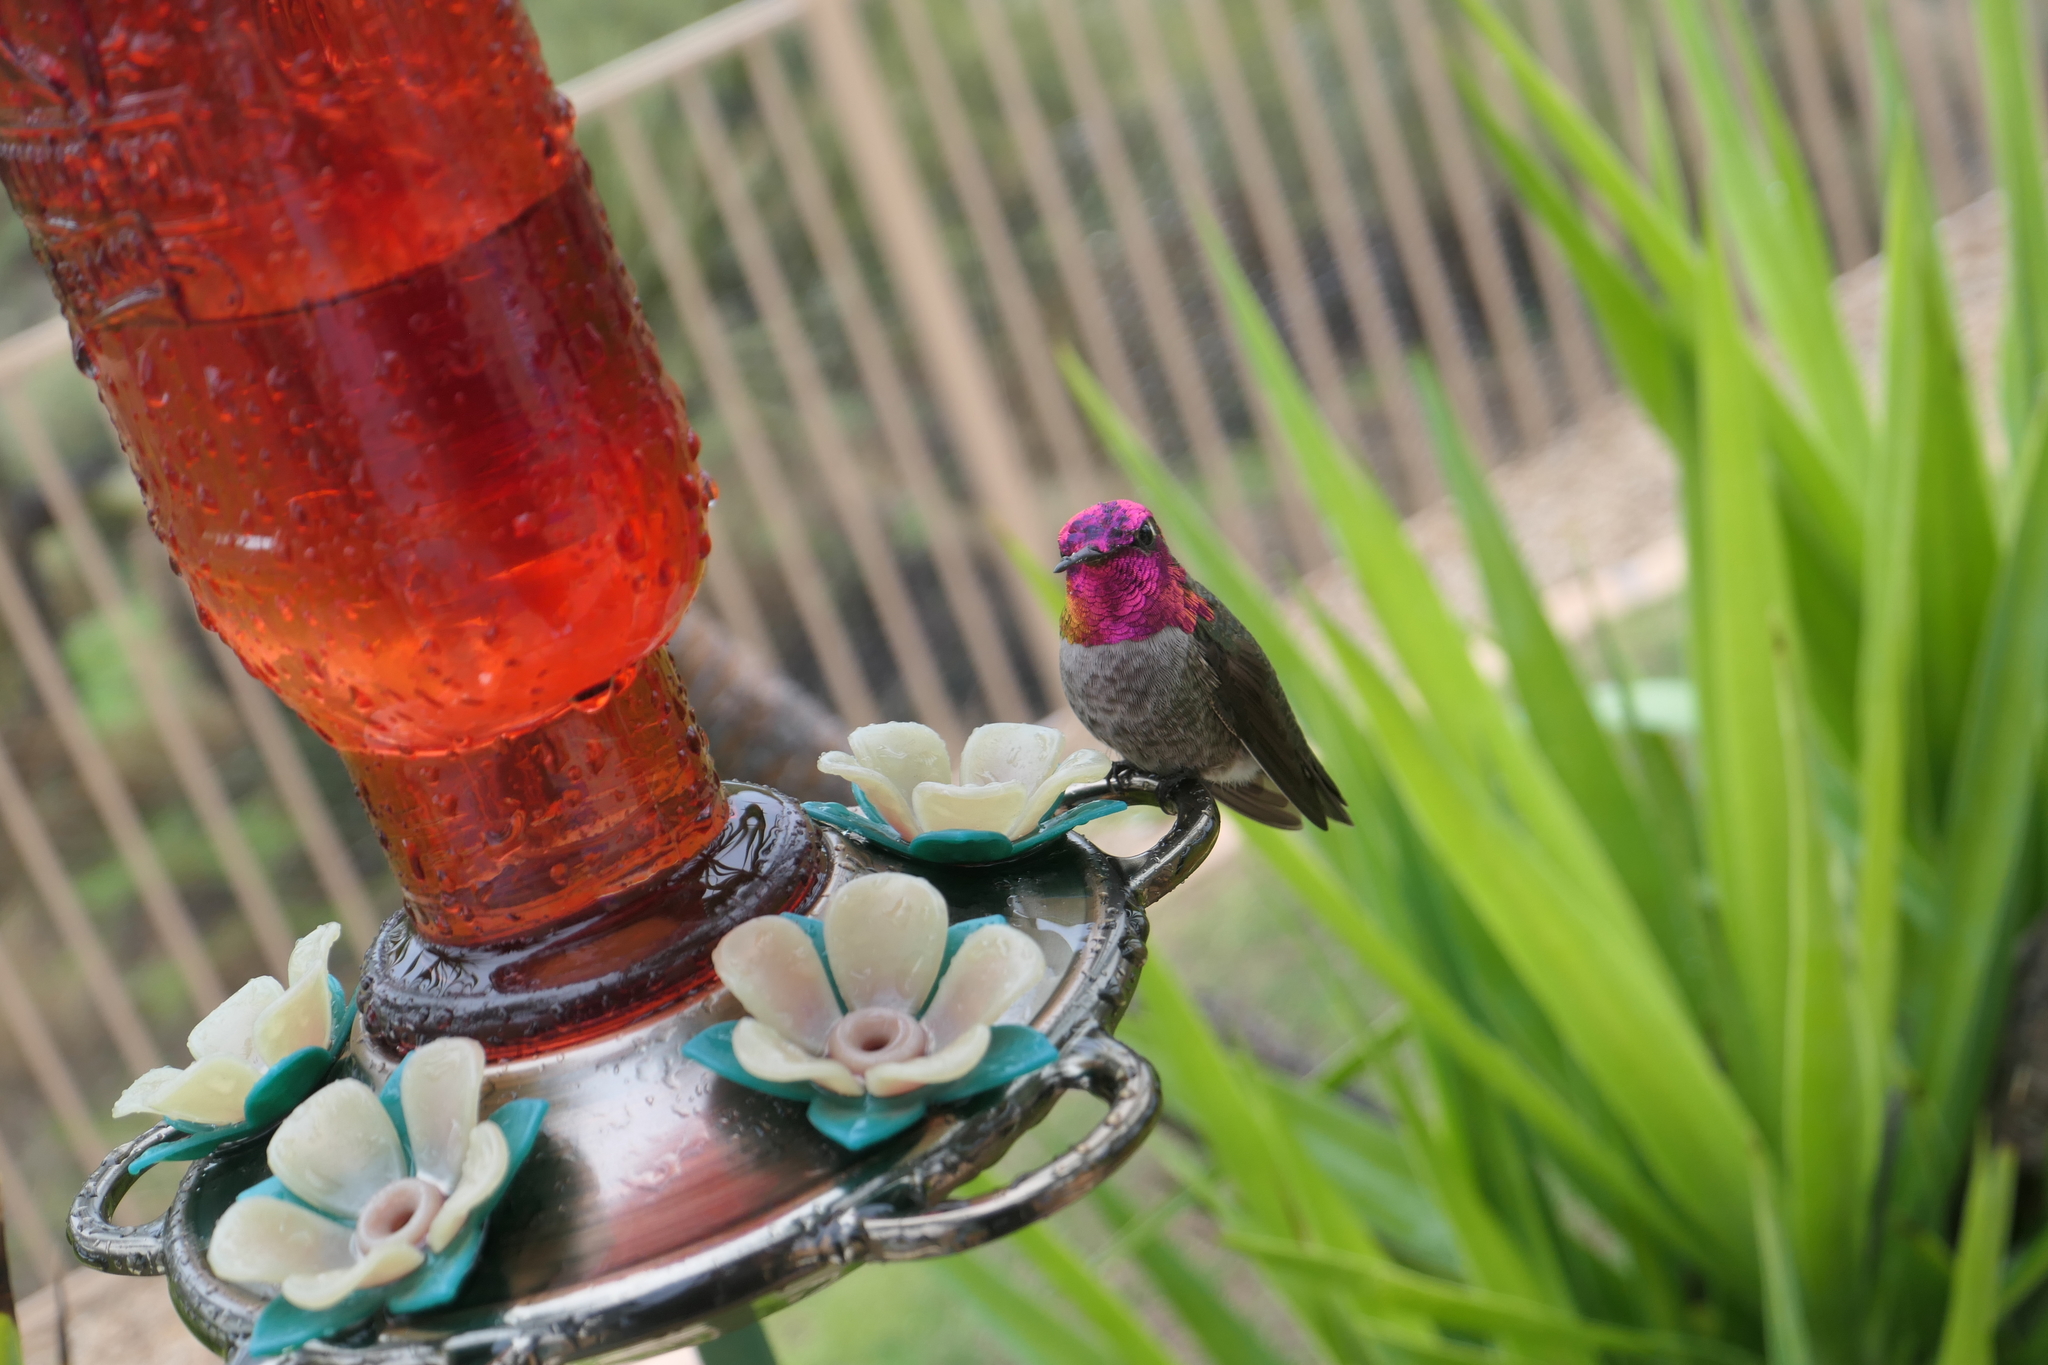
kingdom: Animalia
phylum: Chordata
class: Aves
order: Apodiformes
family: Trochilidae
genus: Calypte
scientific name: Calypte anna
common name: Anna's hummingbird
